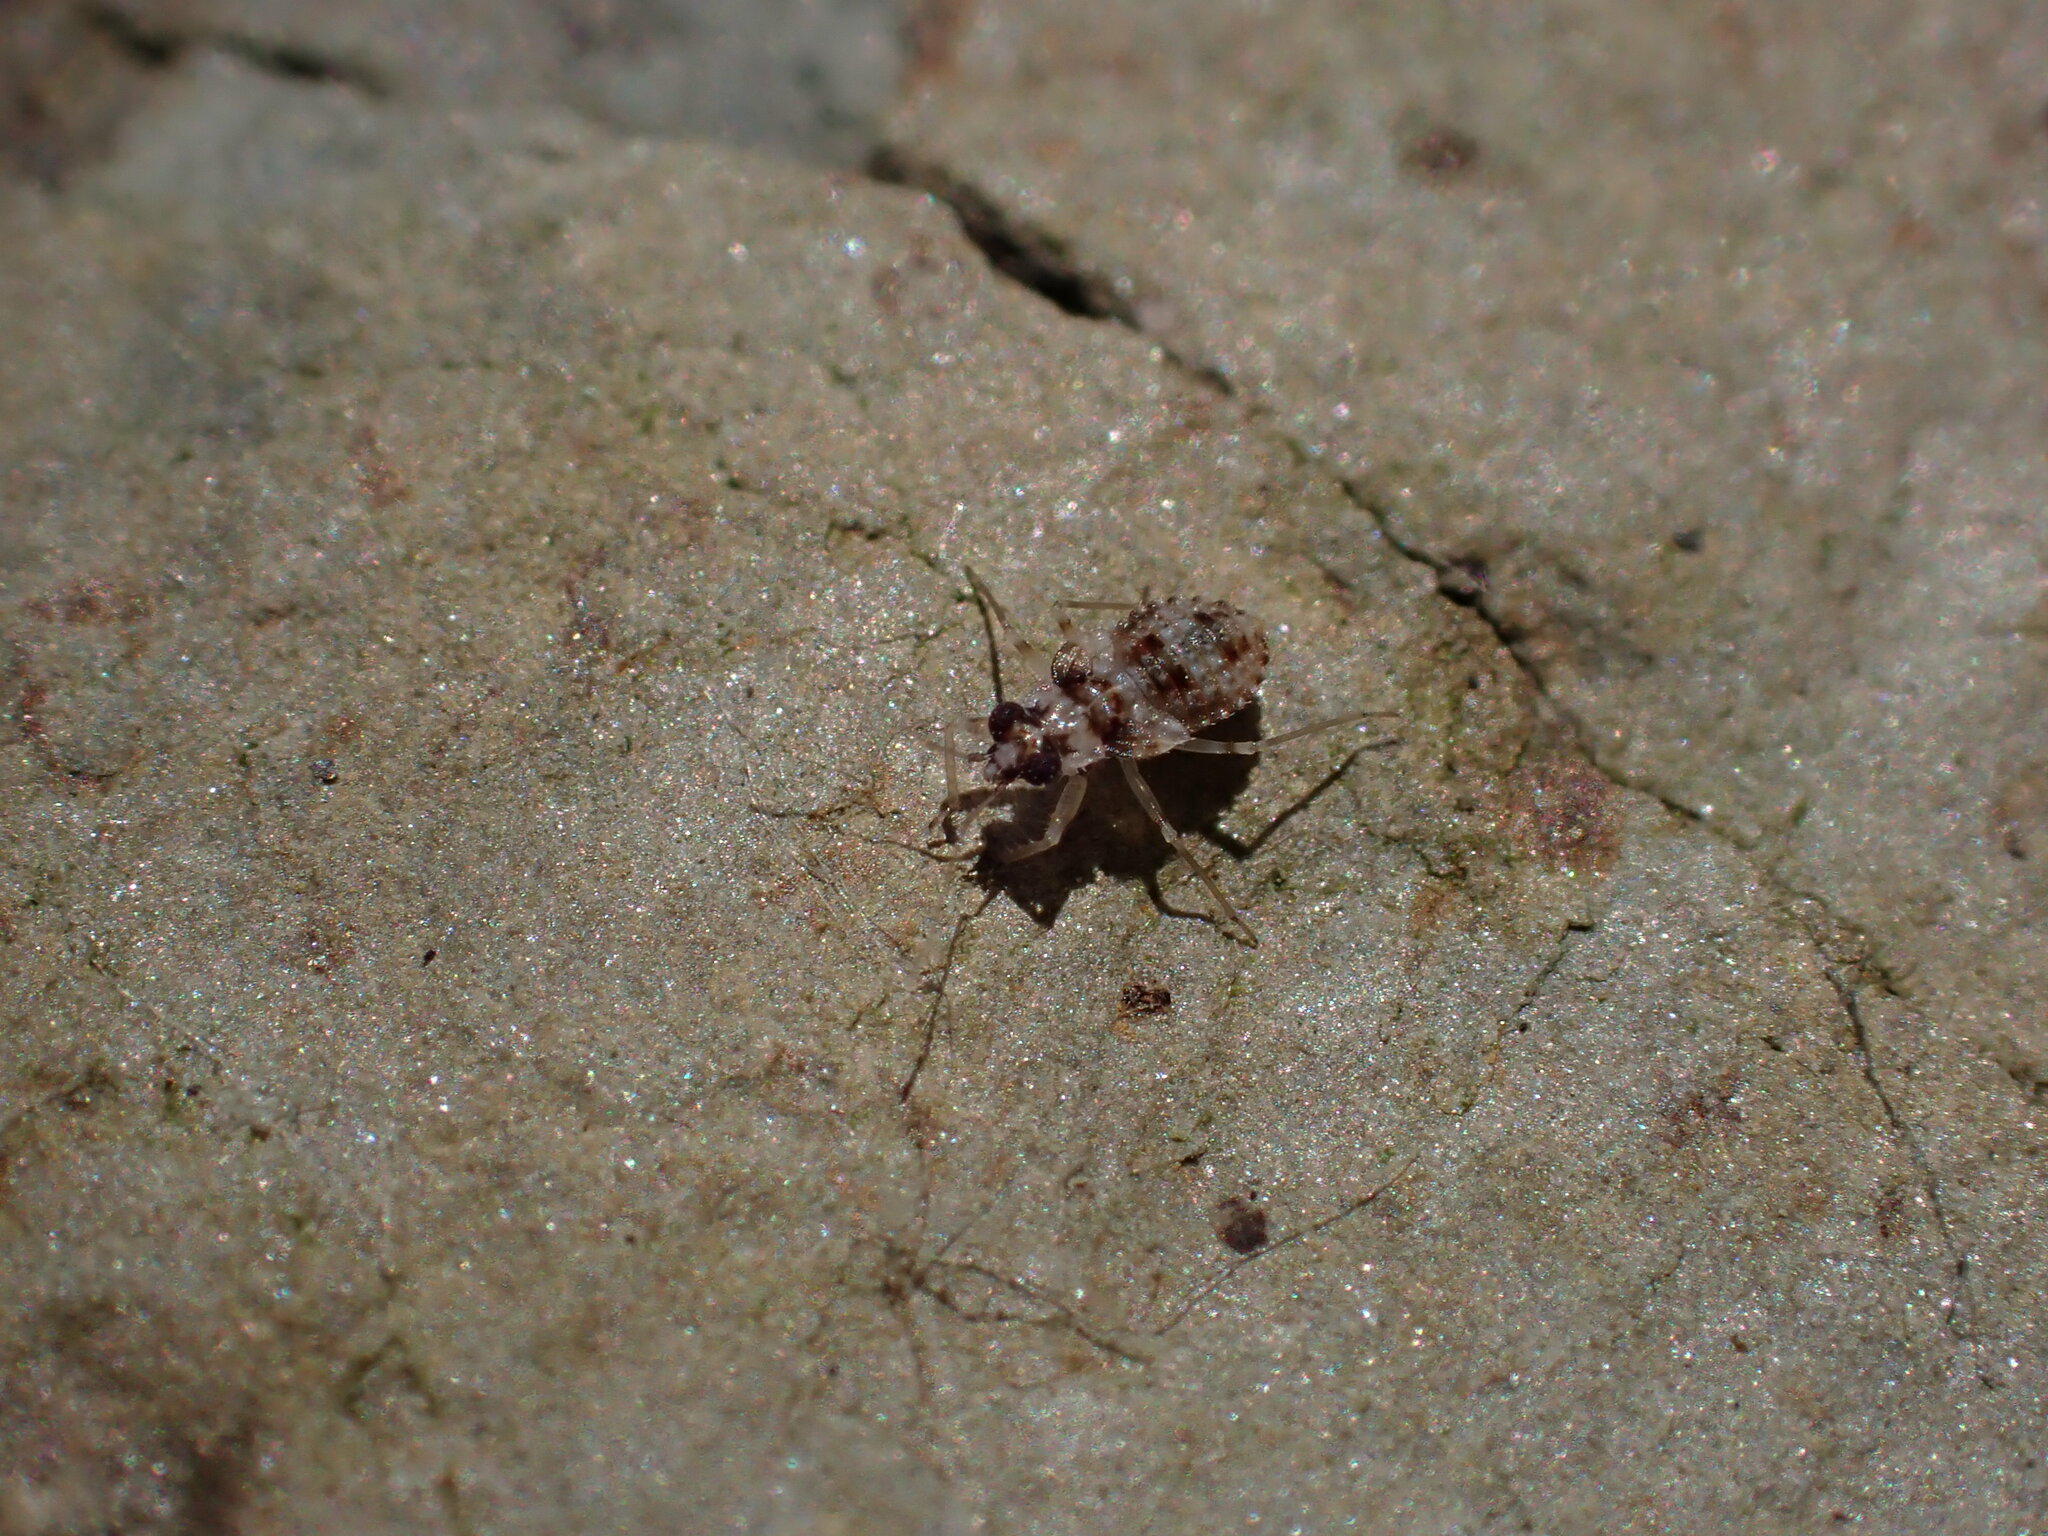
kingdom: Animalia
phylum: Arthropoda
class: Insecta
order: Hemiptera
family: Leptopodidae
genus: Leptopus
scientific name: Leptopus marmoratus
